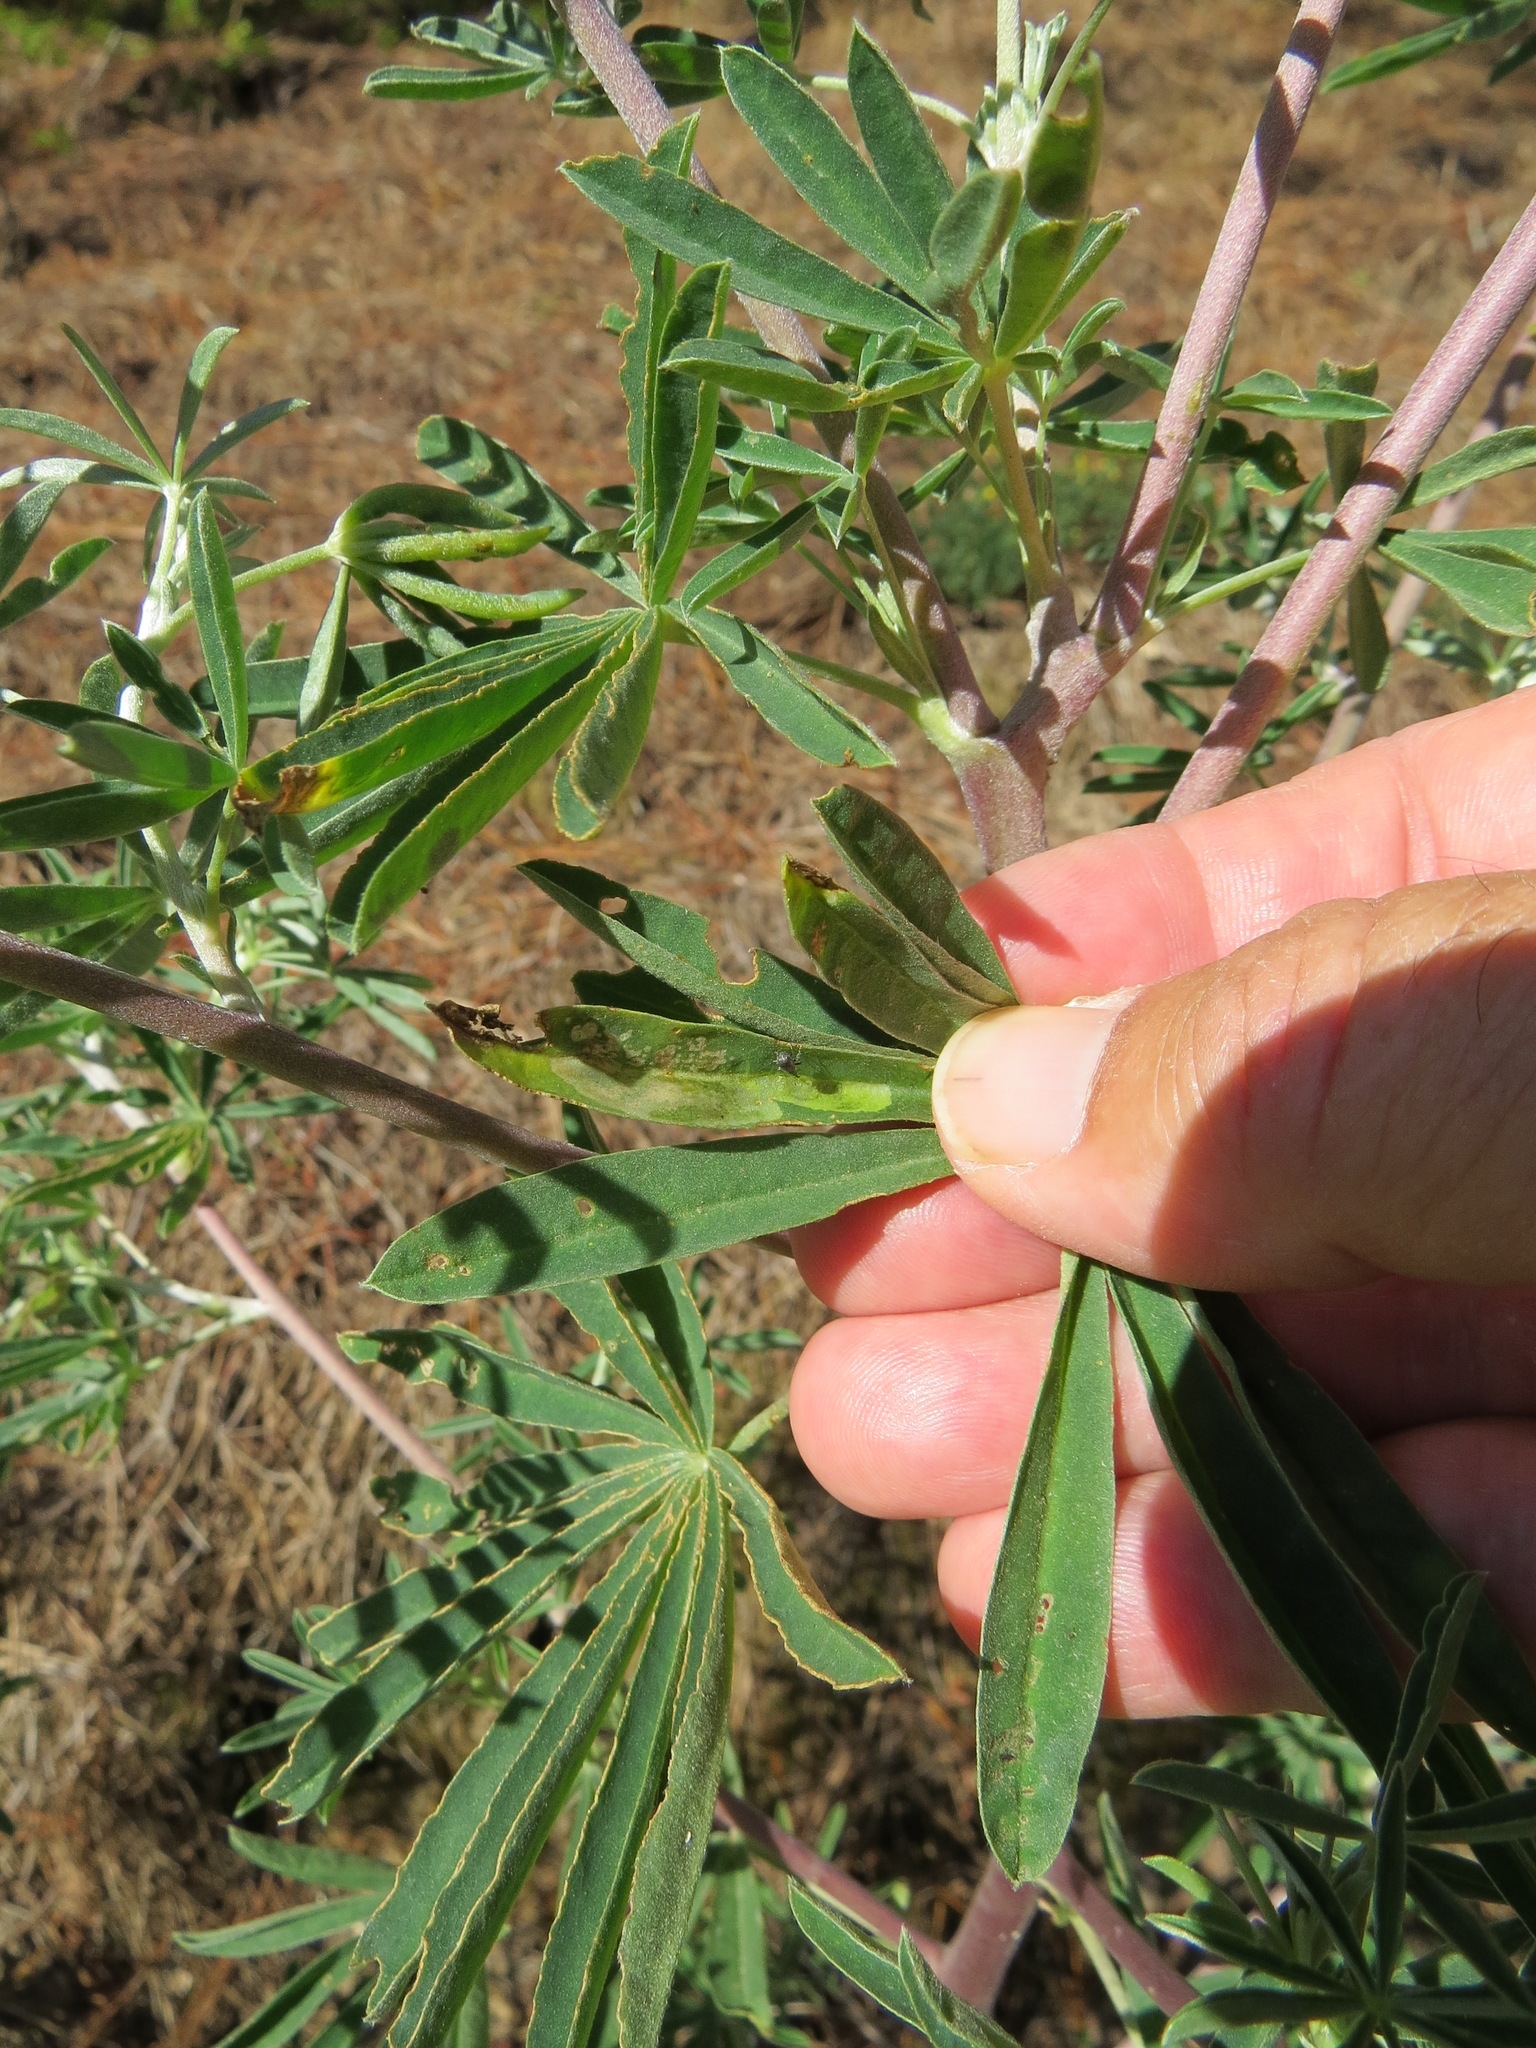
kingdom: Animalia
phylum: Arthropoda
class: Insecta
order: Diptera
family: Anthomyiidae
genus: Pegomya
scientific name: Pegomya tinctisquama
